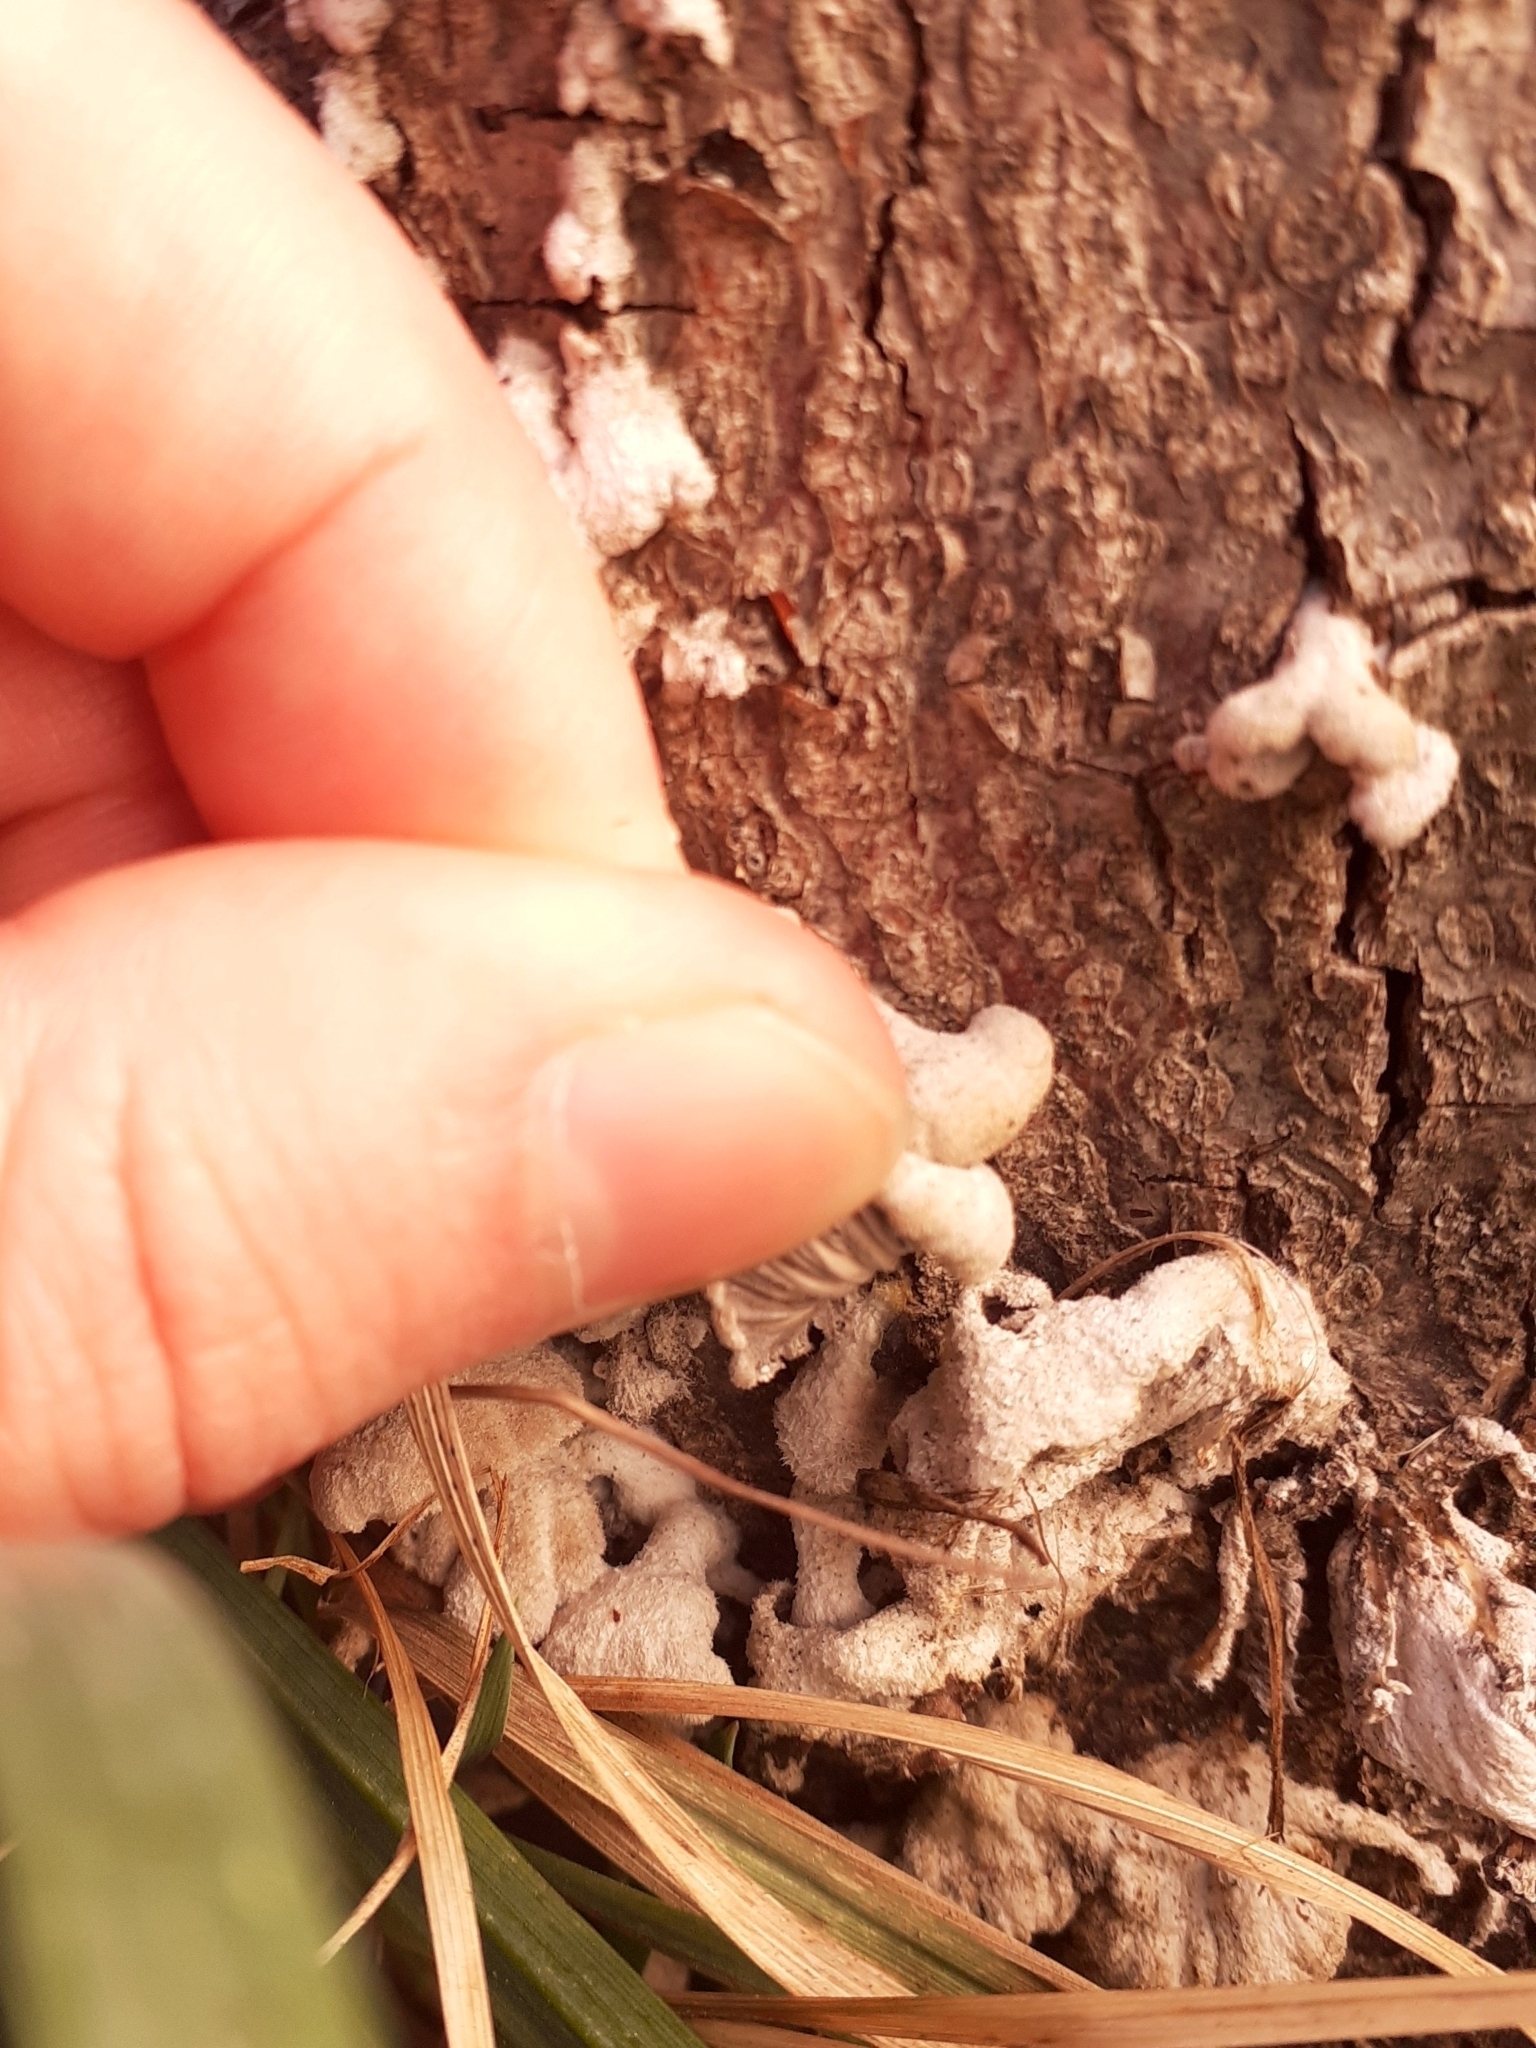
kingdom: Fungi
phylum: Basidiomycota
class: Agaricomycetes
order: Agaricales
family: Schizophyllaceae
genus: Schizophyllum
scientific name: Schizophyllum commune
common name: Common porecrust
